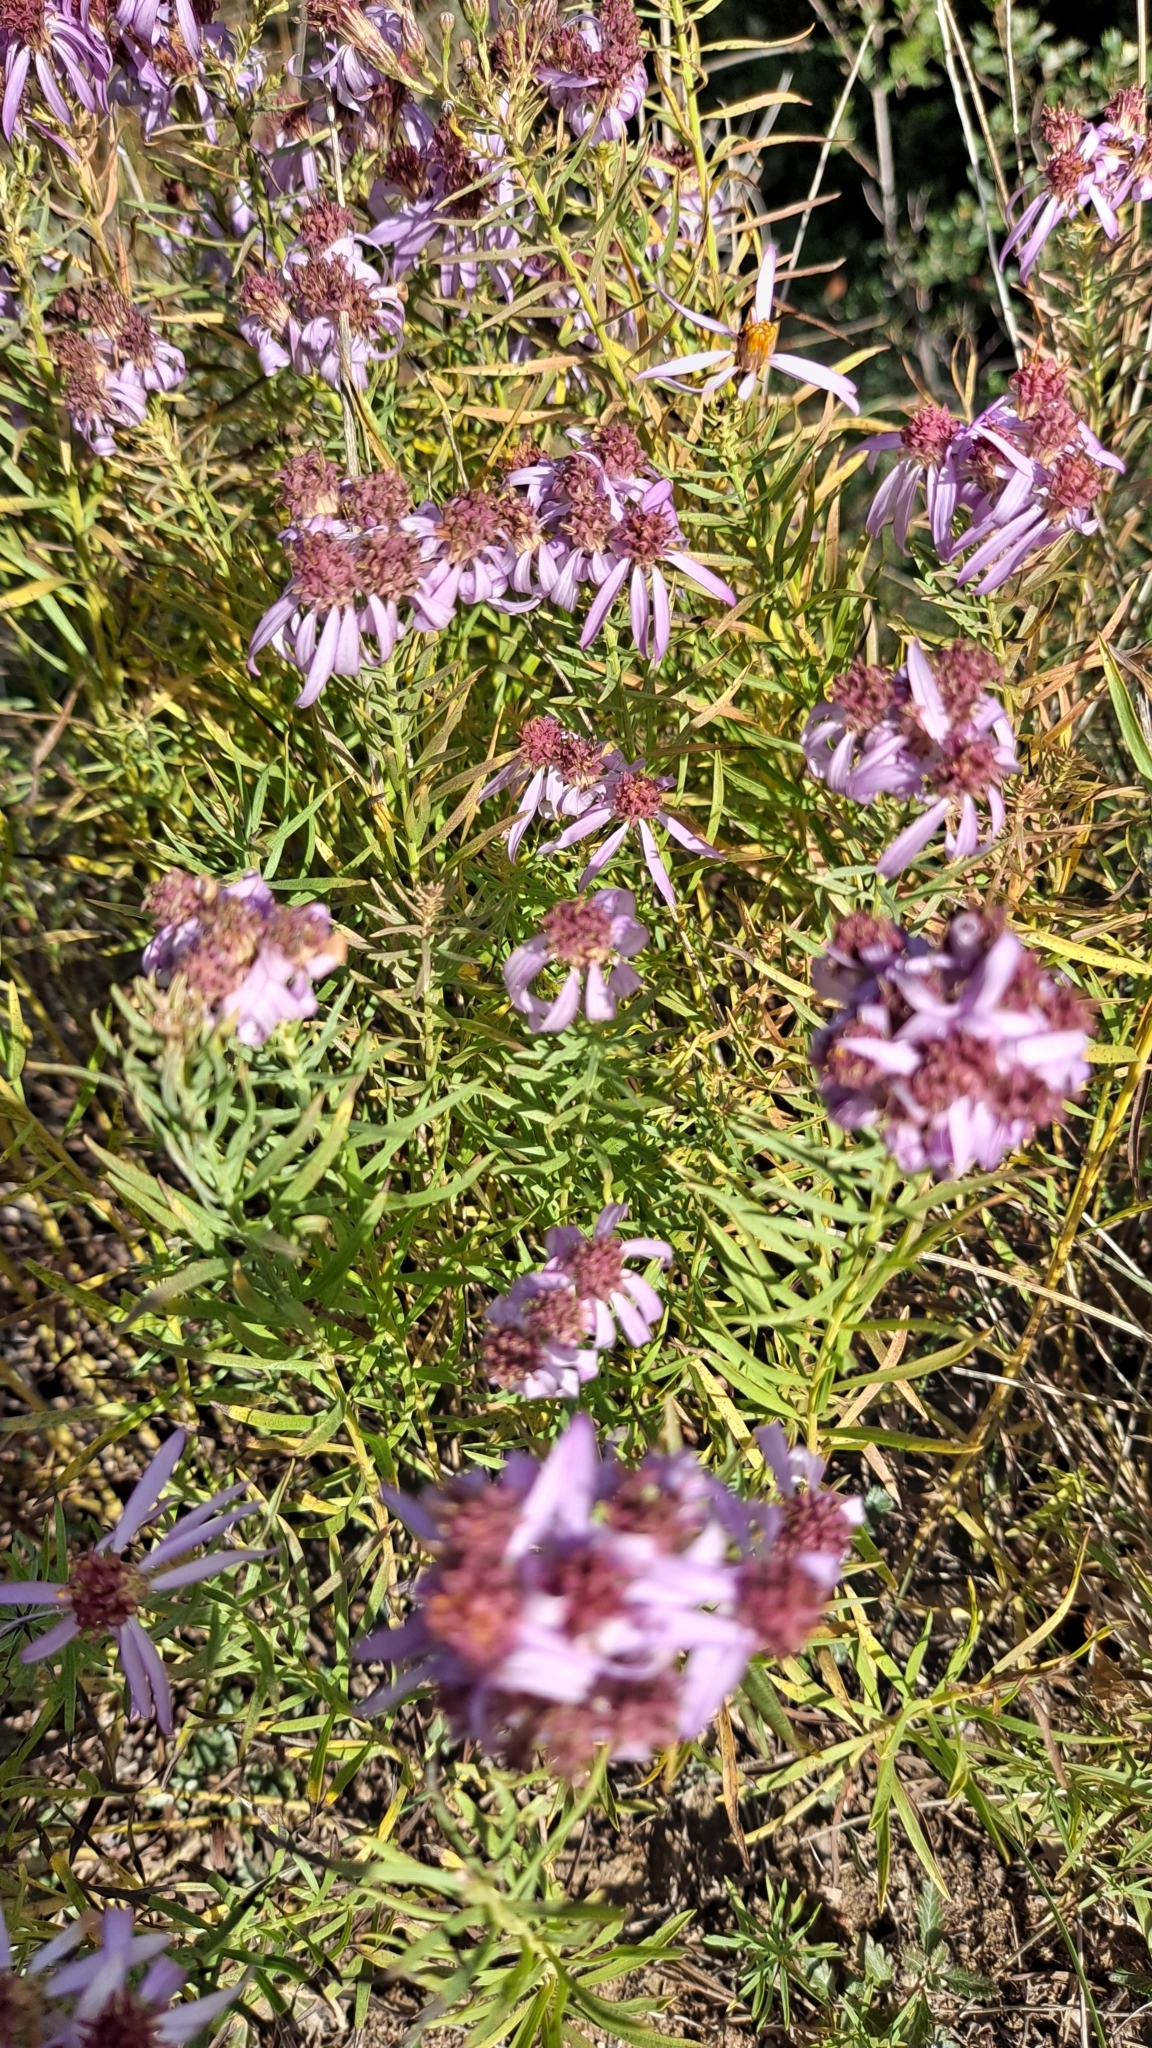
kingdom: Plantae
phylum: Tracheophyta
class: Magnoliopsida
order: Asterales
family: Asteraceae
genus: Galatella
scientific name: Galatella sedifolia
